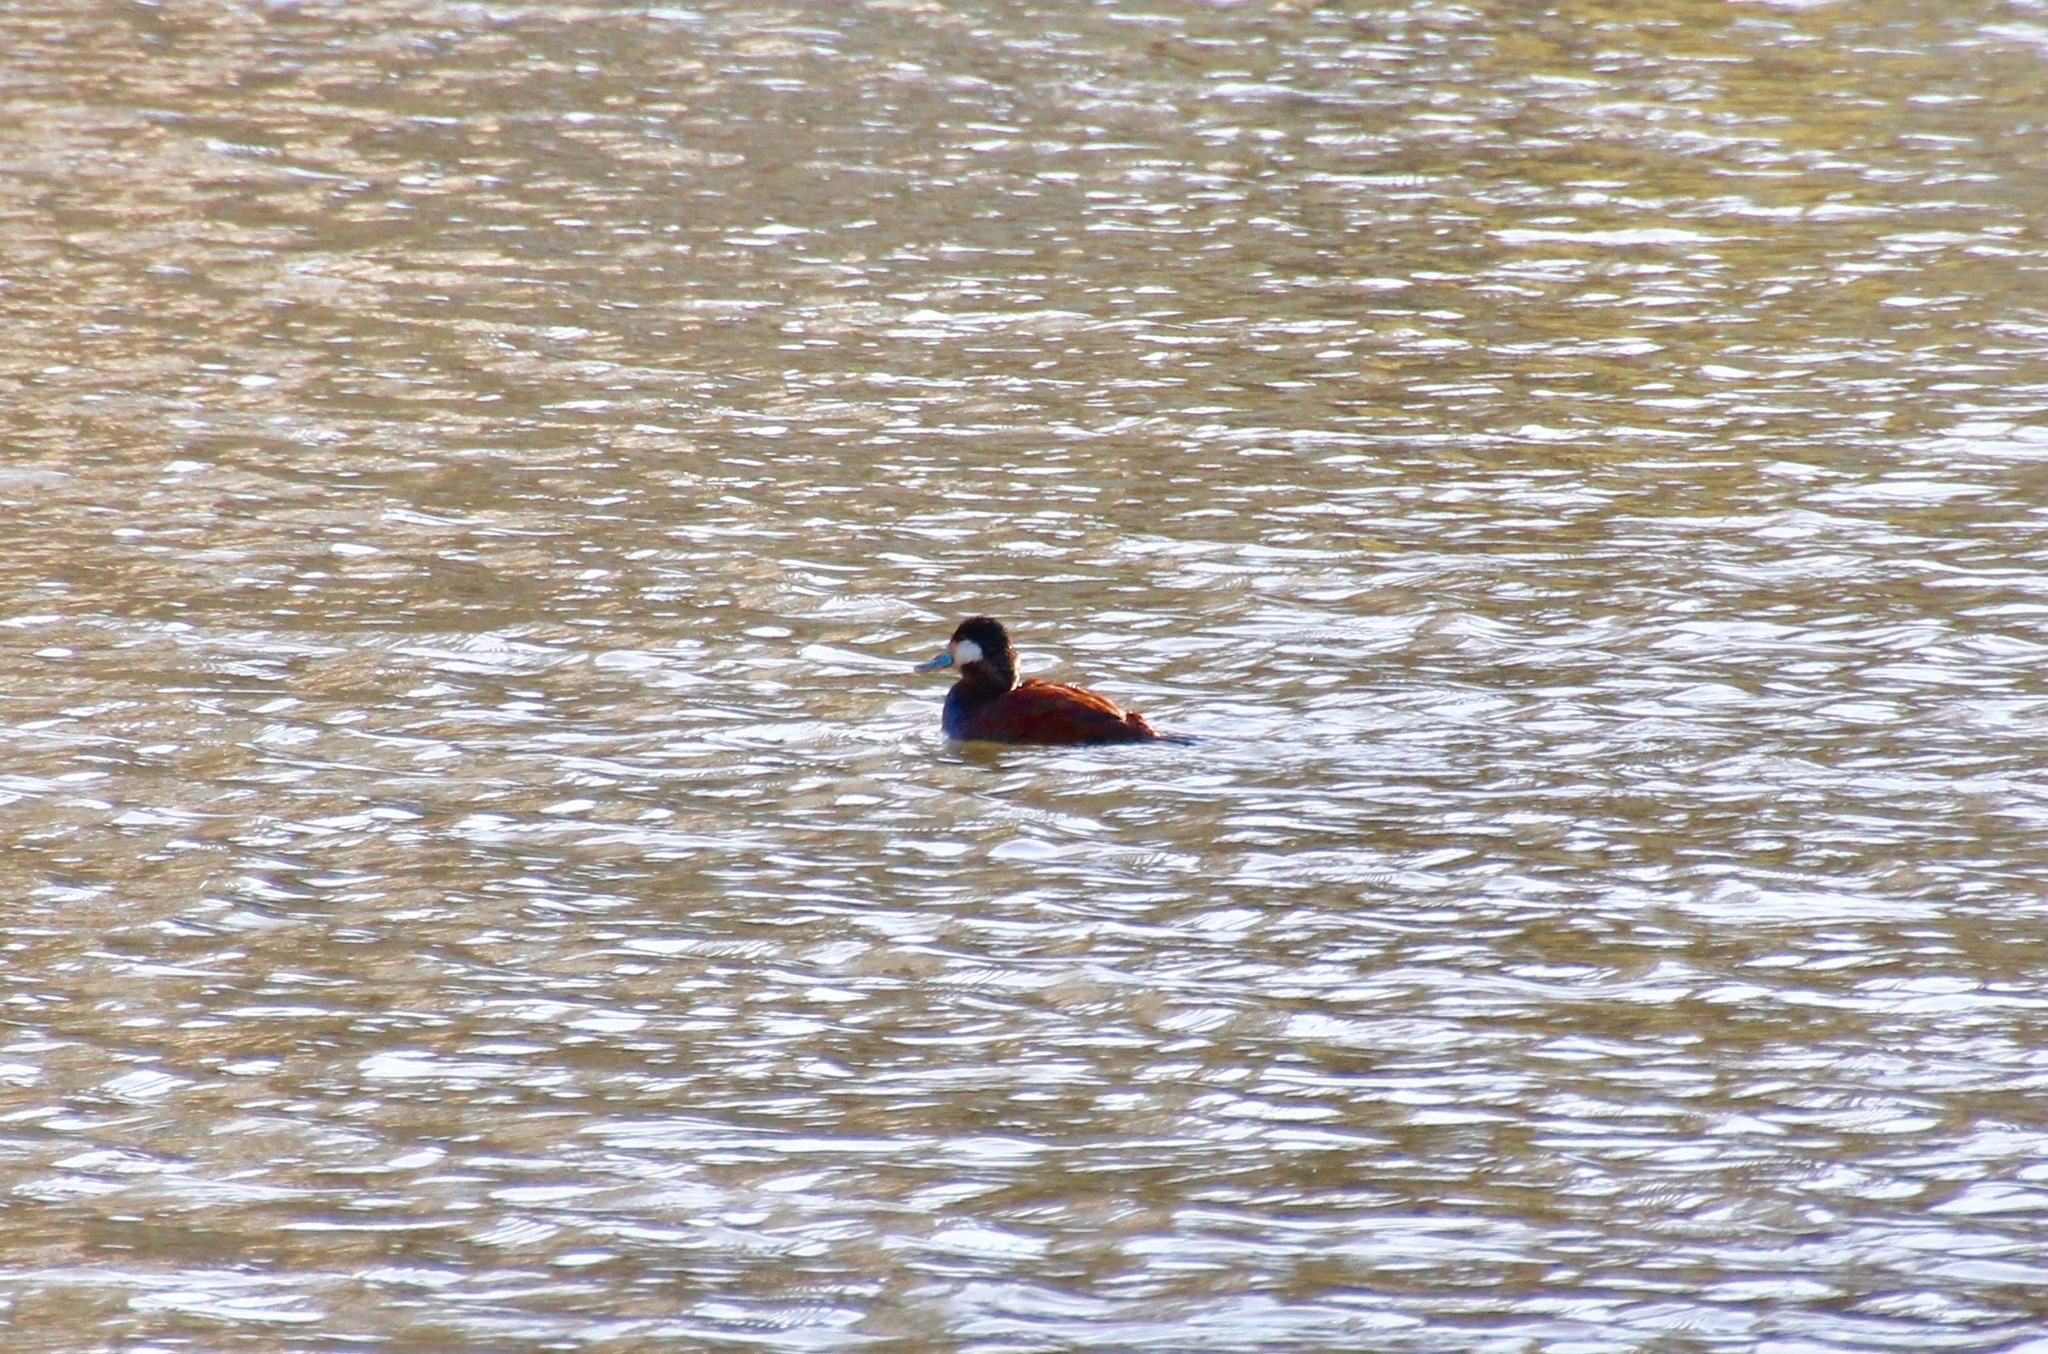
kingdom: Animalia
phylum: Chordata
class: Aves
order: Anseriformes
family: Anatidae
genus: Oxyura
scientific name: Oxyura jamaicensis
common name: Ruddy duck
